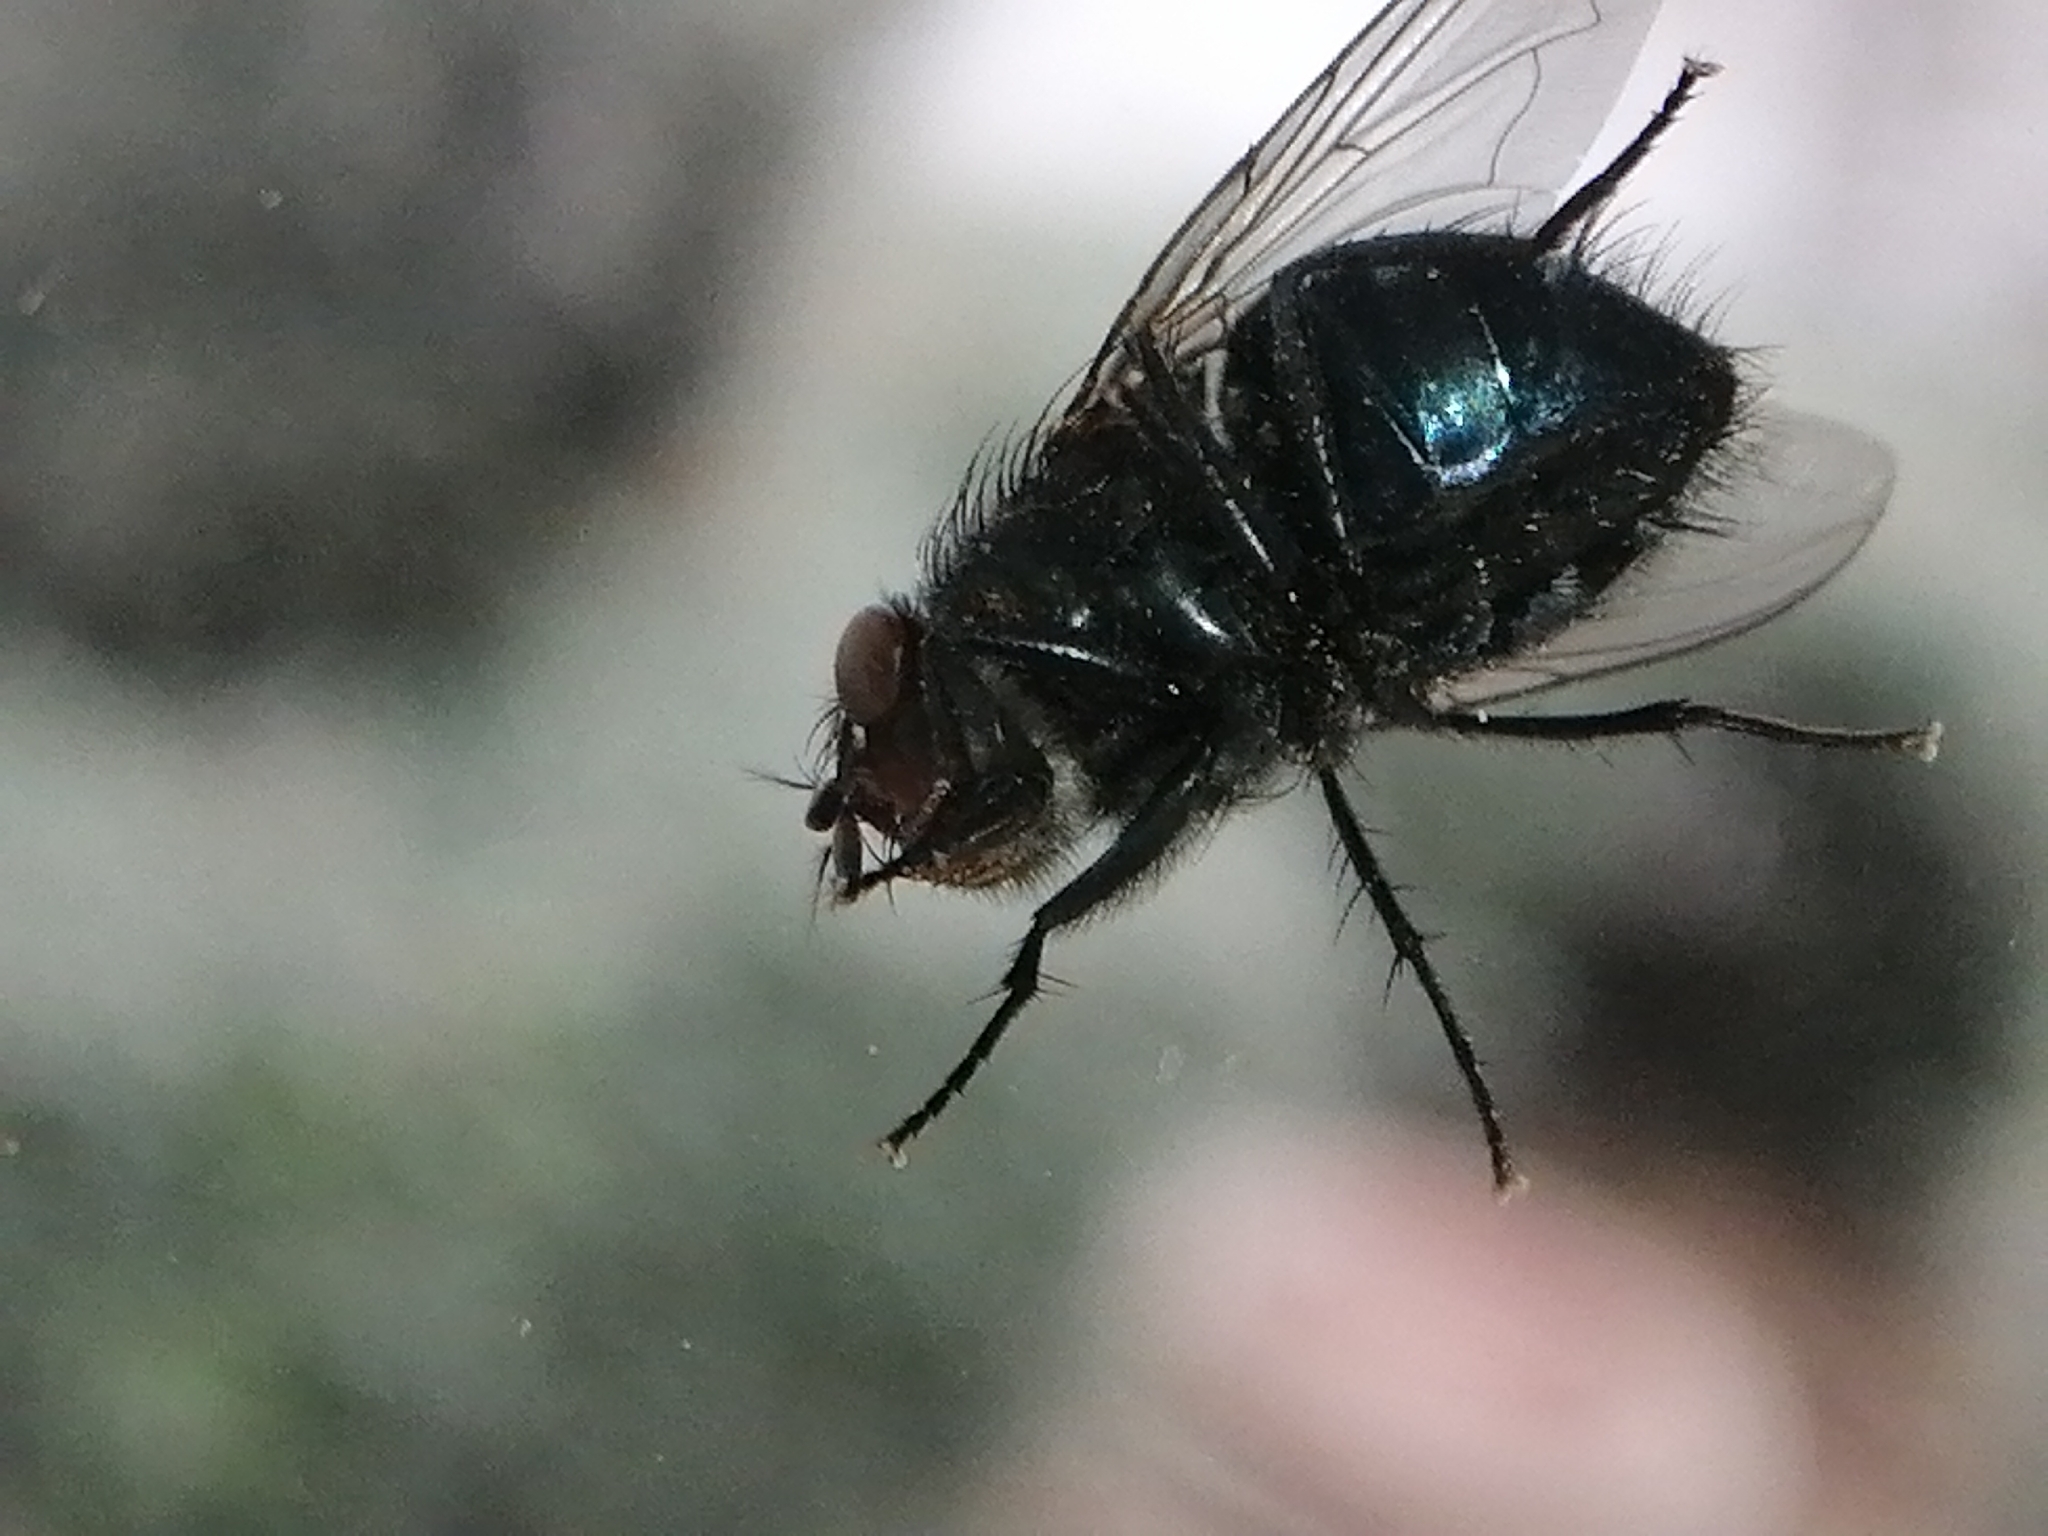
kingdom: Animalia
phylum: Arthropoda
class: Insecta
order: Diptera
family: Calliphoridae
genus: Calliphora
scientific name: Calliphora vicina
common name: Common blow flie
